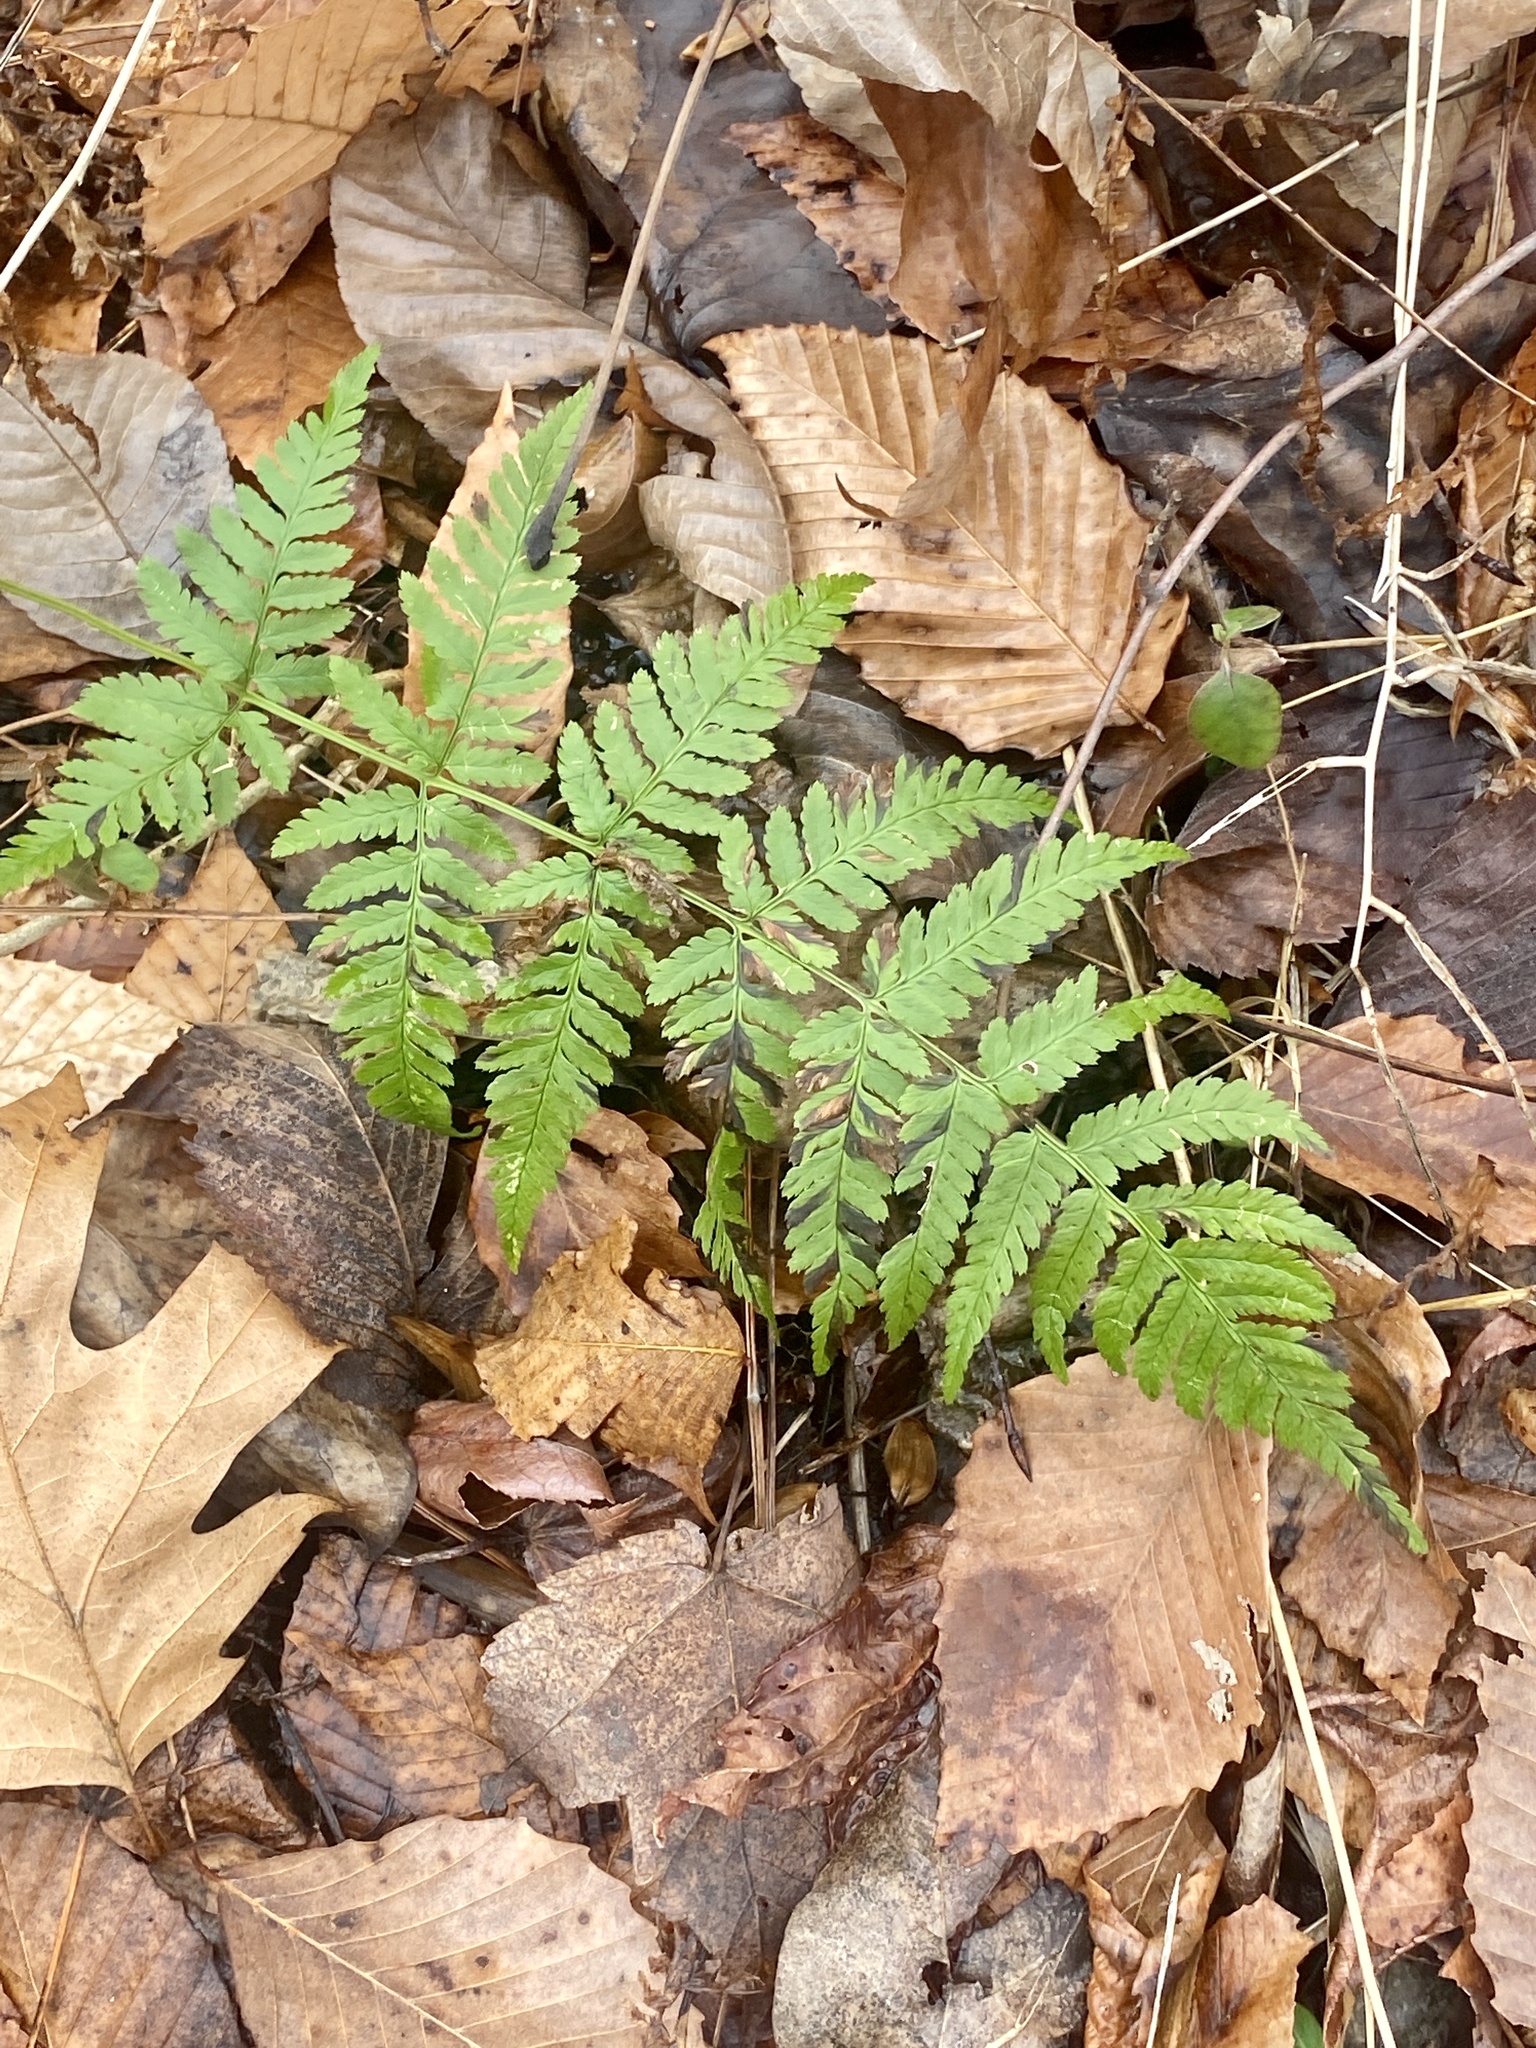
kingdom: Plantae
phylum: Tracheophyta
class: Polypodiopsida
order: Polypodiales
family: Dryopteridaceae
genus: Dryopteris
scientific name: Dryopteris carthusiana
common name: Narrow buckler-fern
